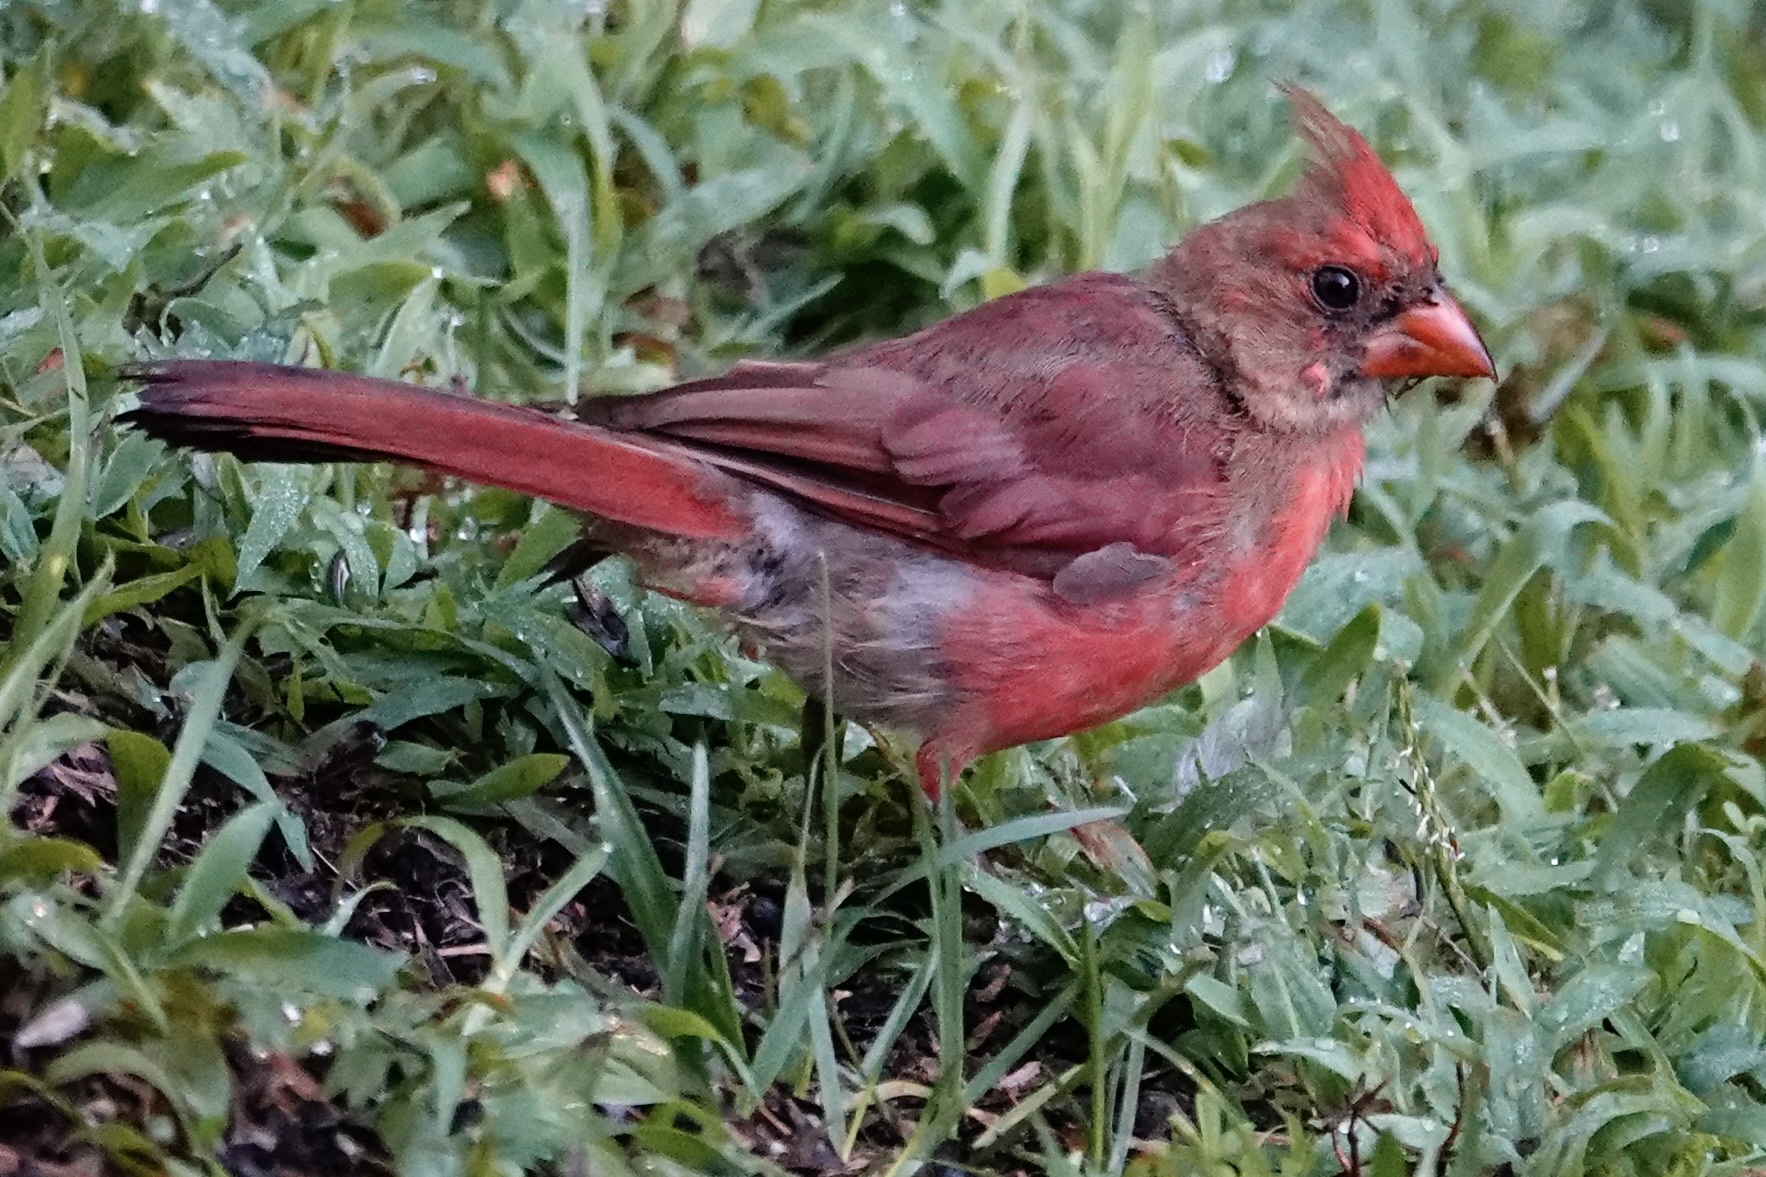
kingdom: Animalia
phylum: Chordata
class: Aves
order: Passeriformes
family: Cardinalidae
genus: Cardinalis
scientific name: Cardinalis cardinalis
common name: Northern cardinal
